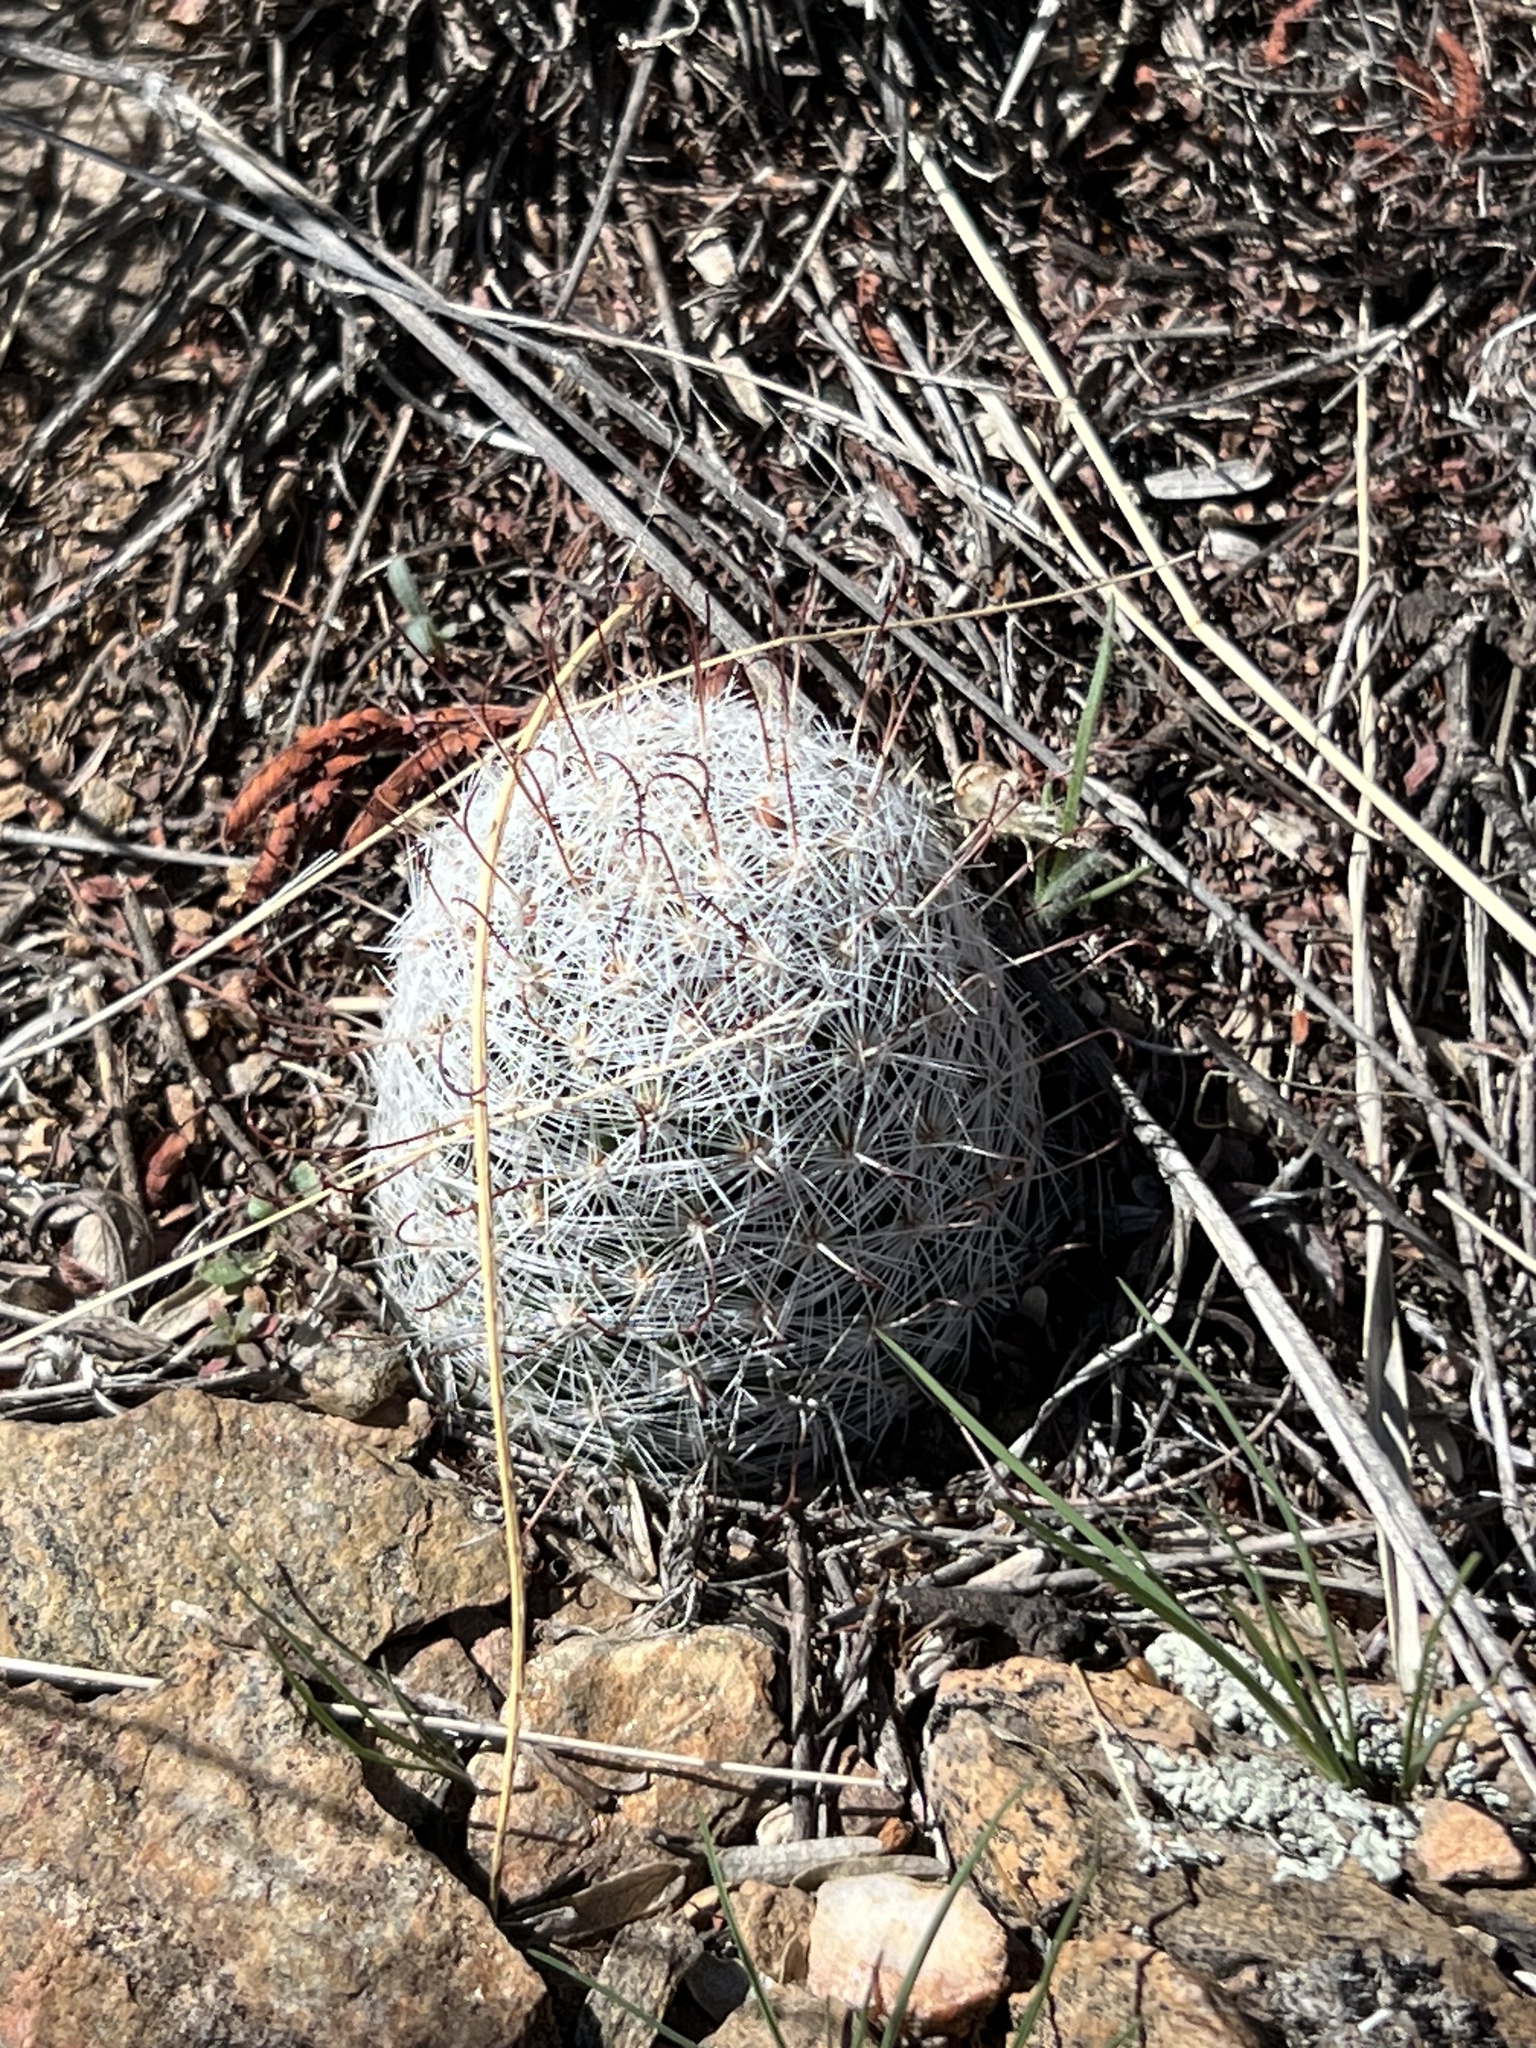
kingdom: Plantae
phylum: Tracheophyta
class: Magnoliopsida
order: Caryophyllales
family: Cactaceae
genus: Cochemiea
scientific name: Cochemiea grahamii
